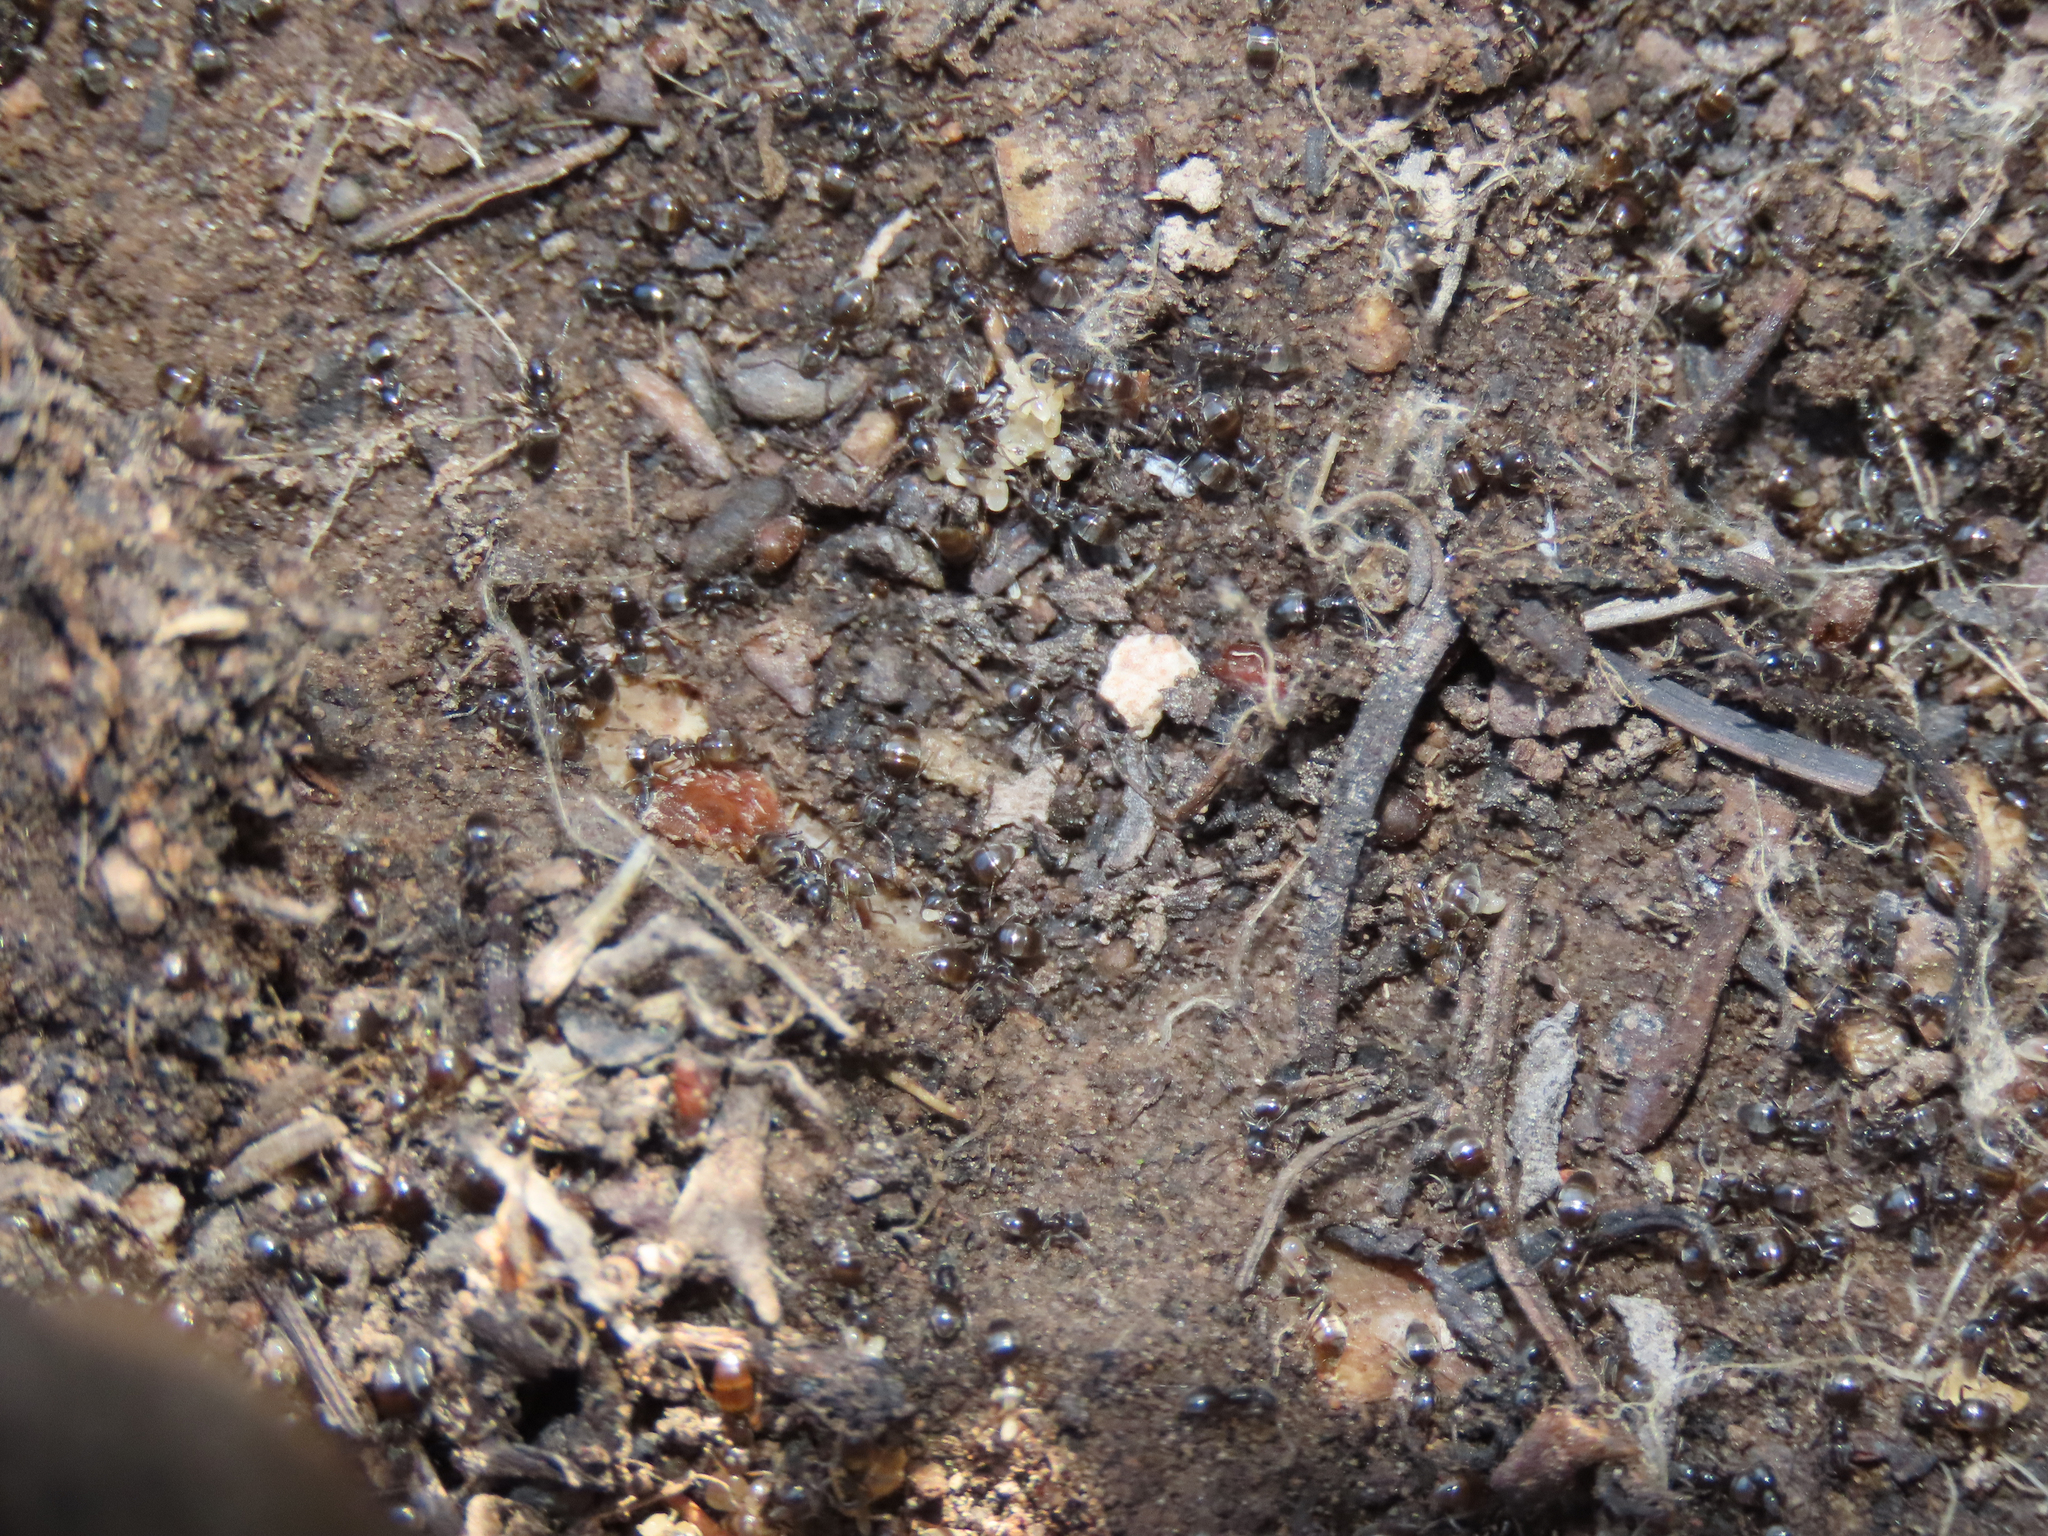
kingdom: Animalia
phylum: Arthropoda
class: Insecta
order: Hymenoptera
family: Formicidae
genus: Tapinoma
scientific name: Tapinoma sessile
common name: Odorous house ant
